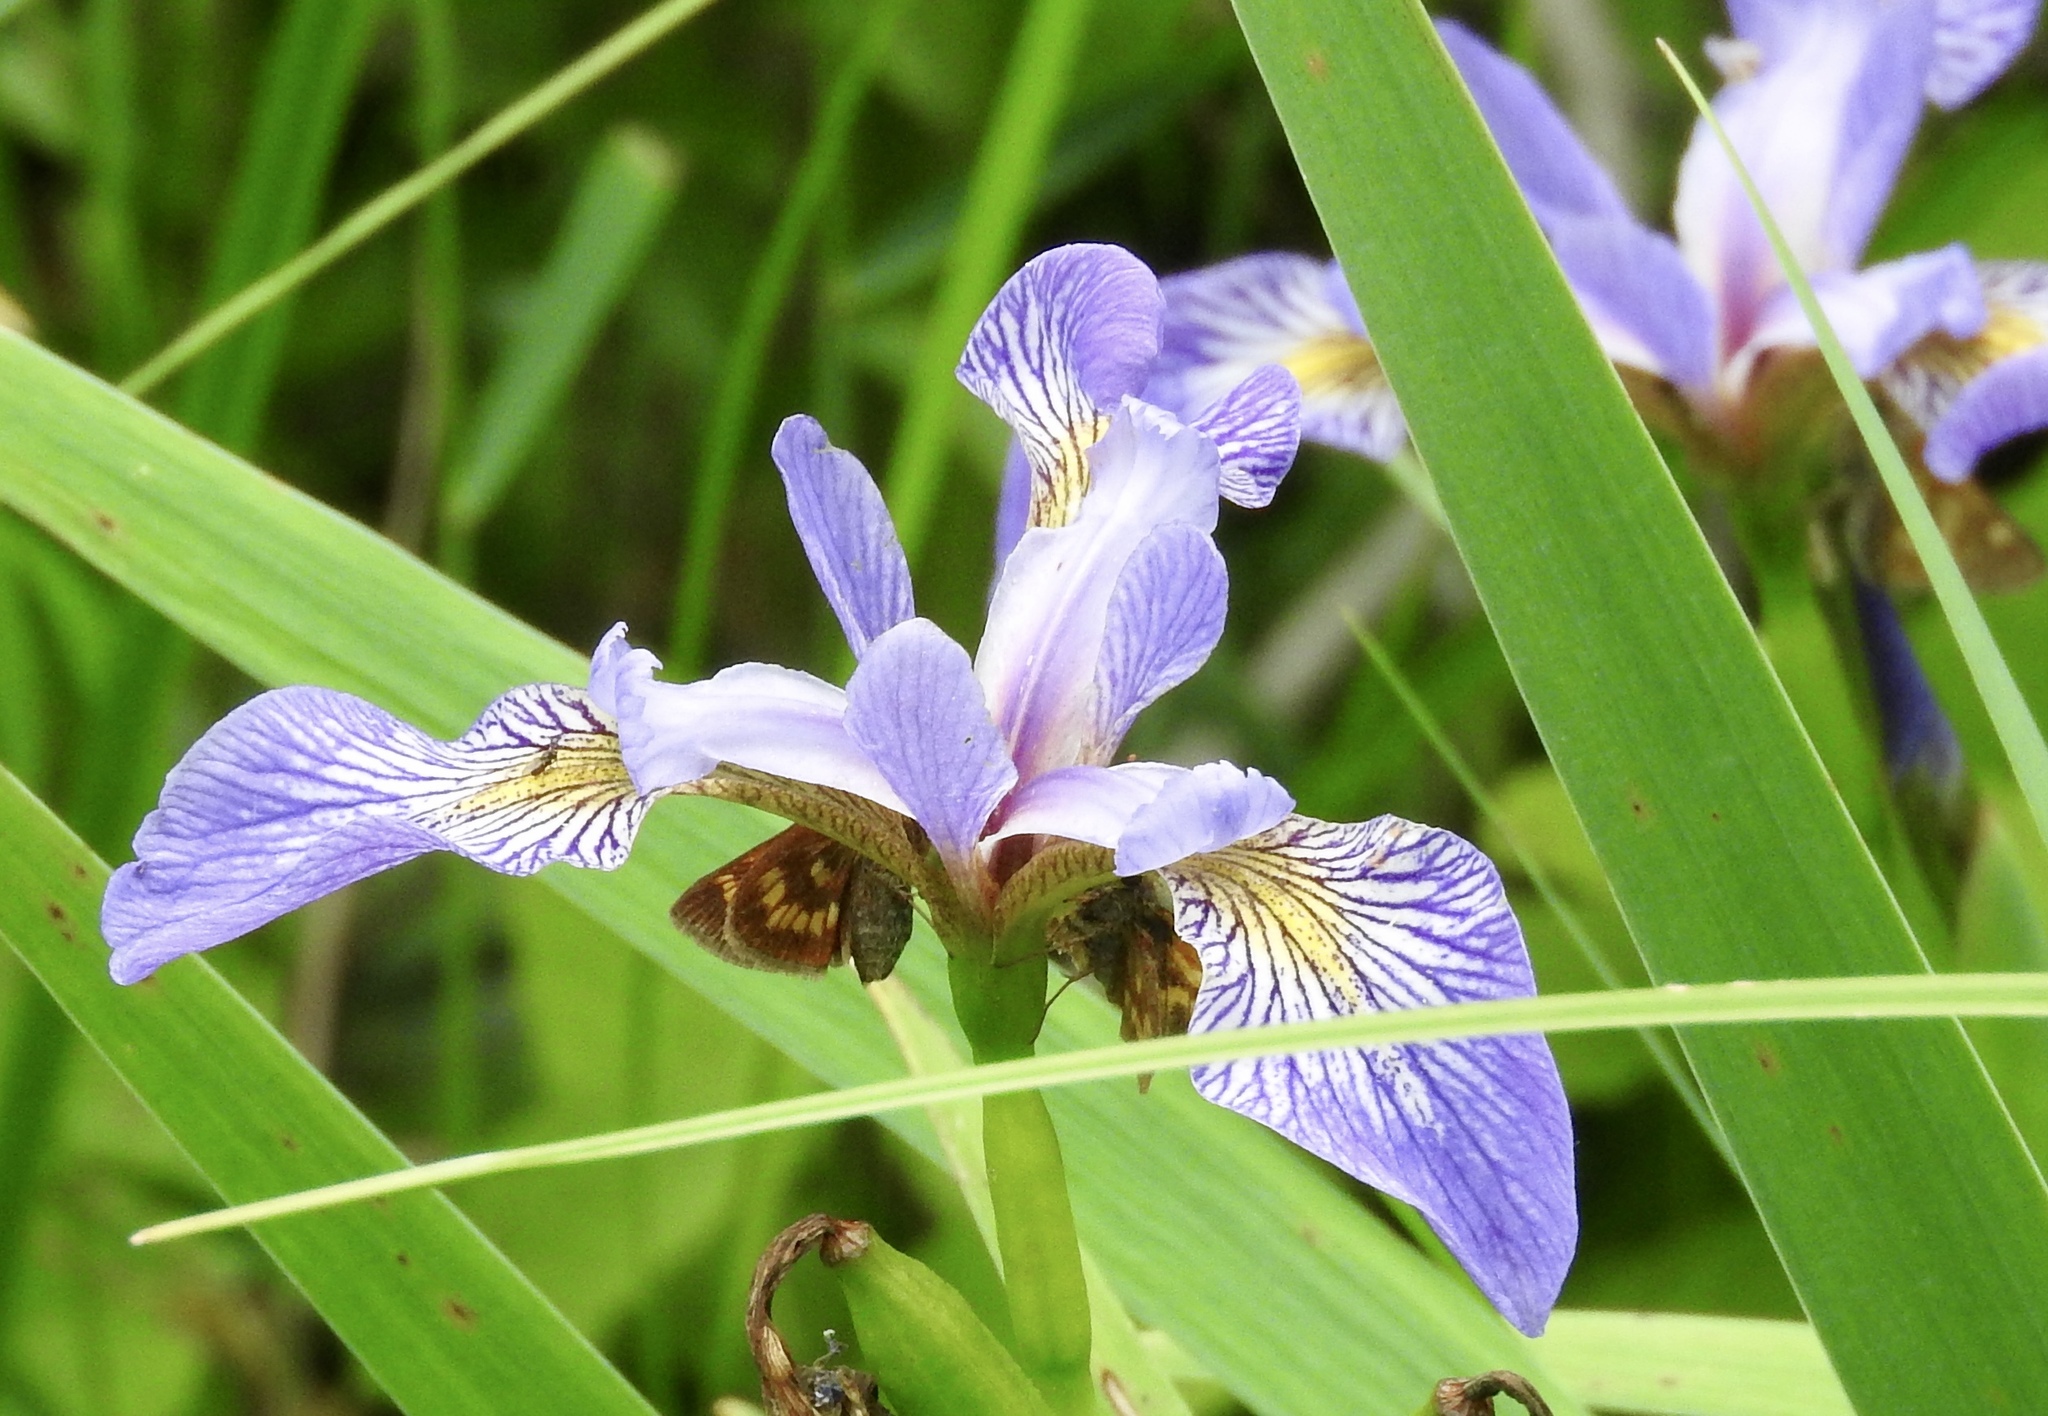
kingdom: Animalia
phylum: Arthropoda
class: Insecta
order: Lepidoptera
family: Hesperiidae
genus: Polites
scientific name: Polites mystic
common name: Long dash
